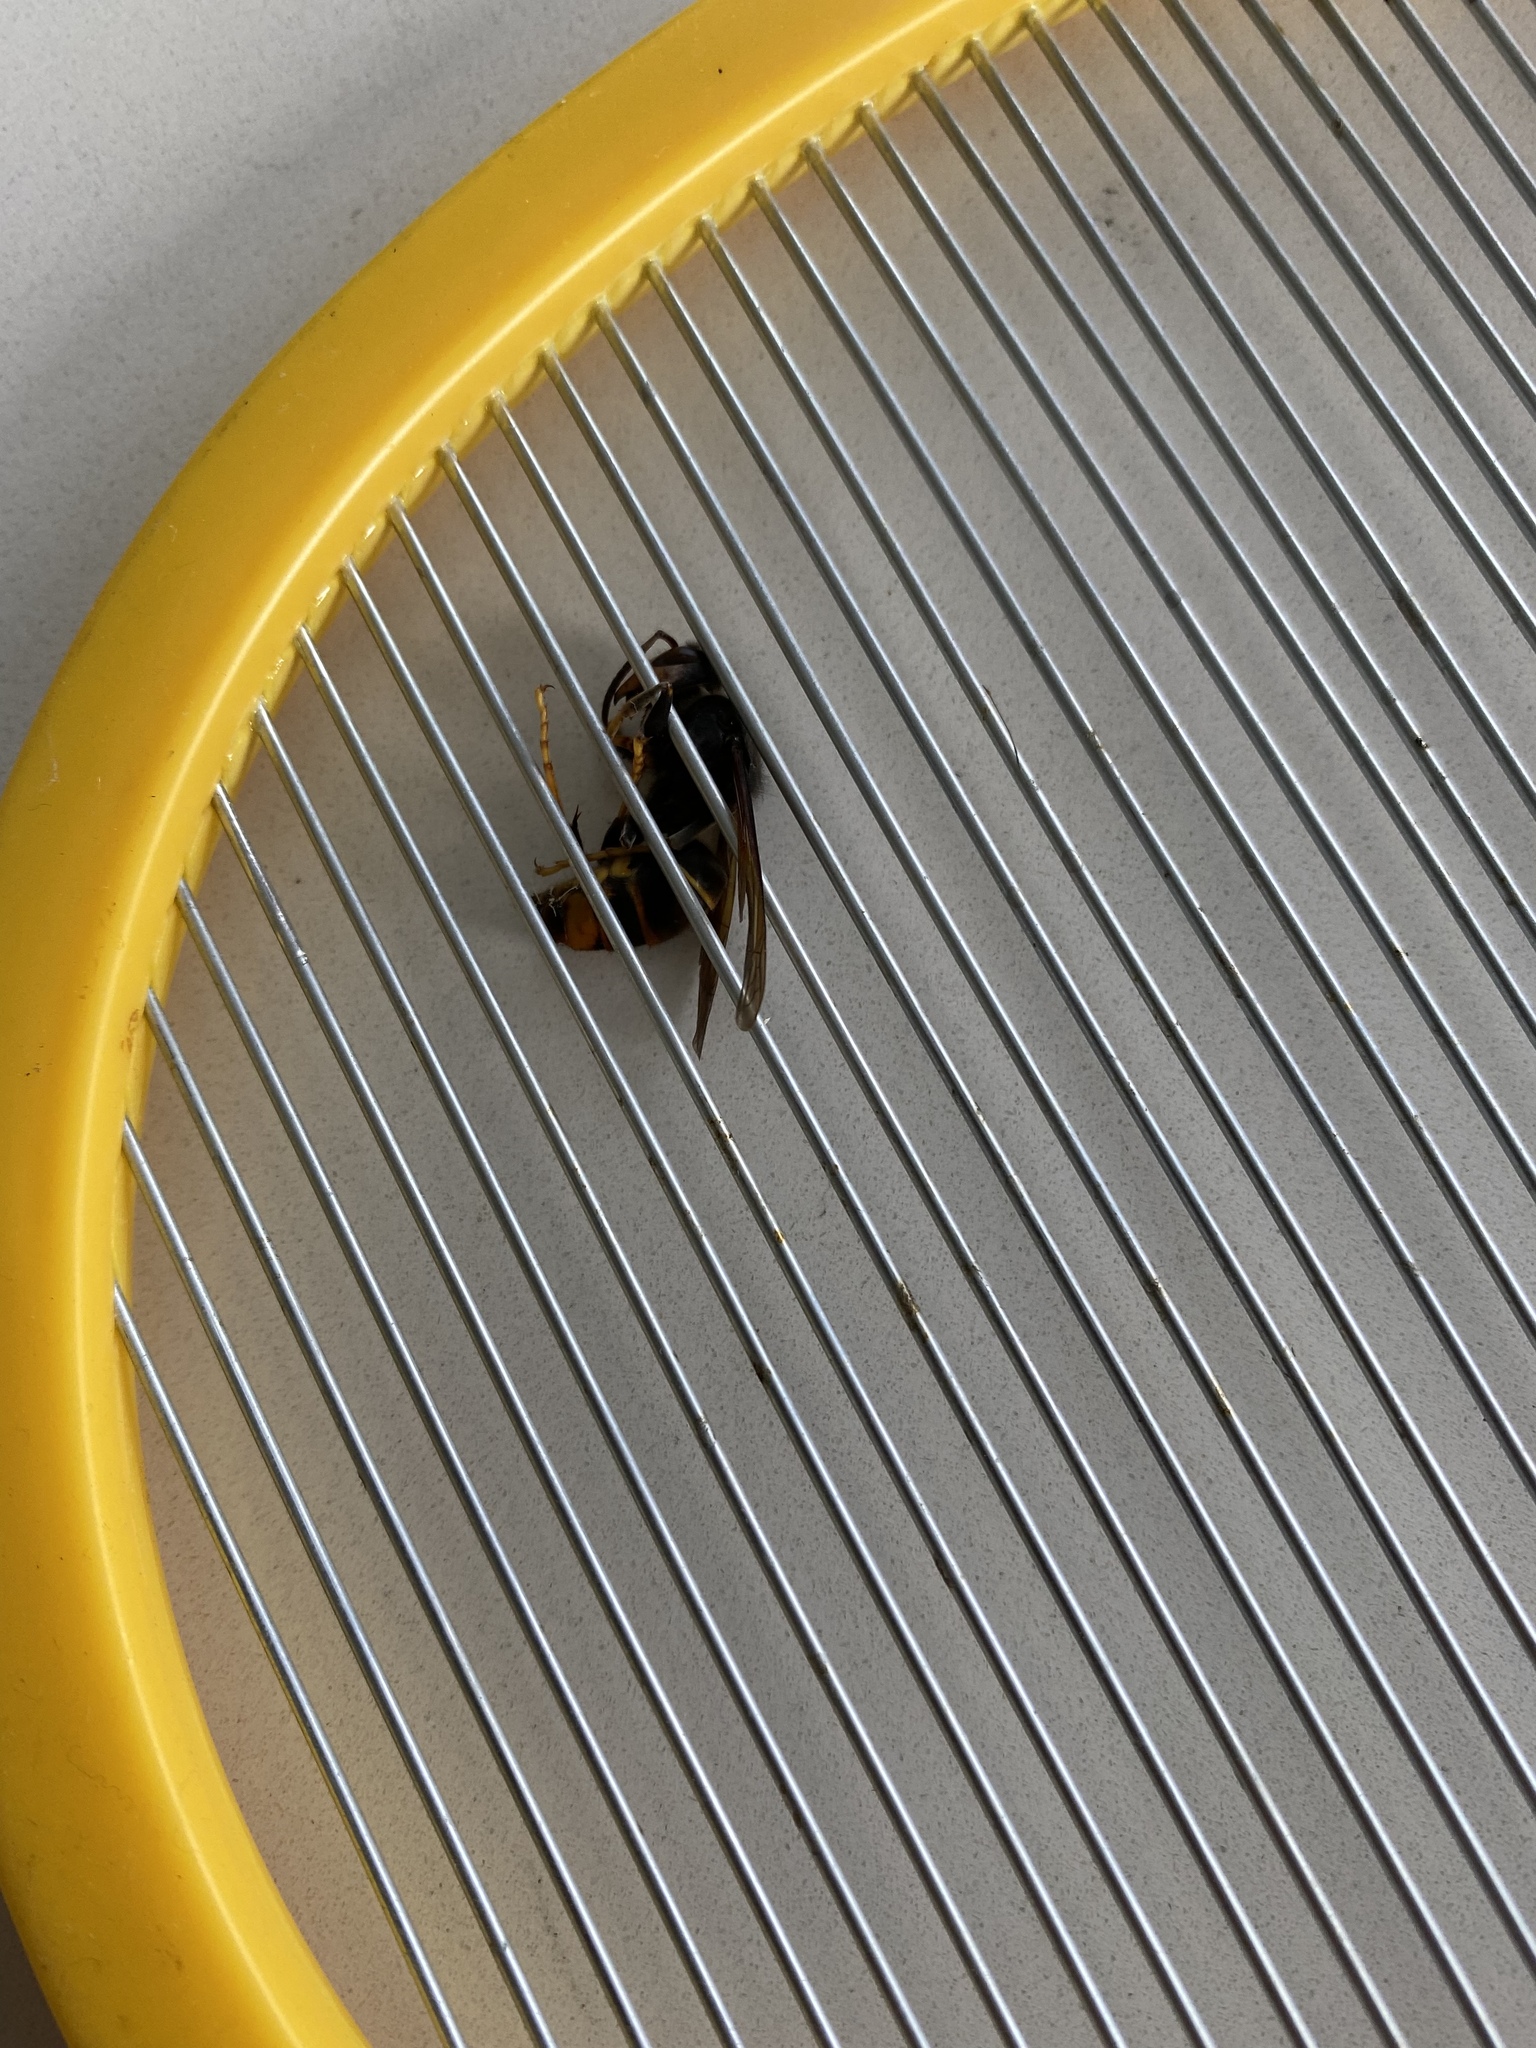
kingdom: Animalia
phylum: Arthropoda
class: Insecta
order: Hymenoptera
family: Vespidae
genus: Vespa
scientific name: Vespa velutina
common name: Asian hornet
